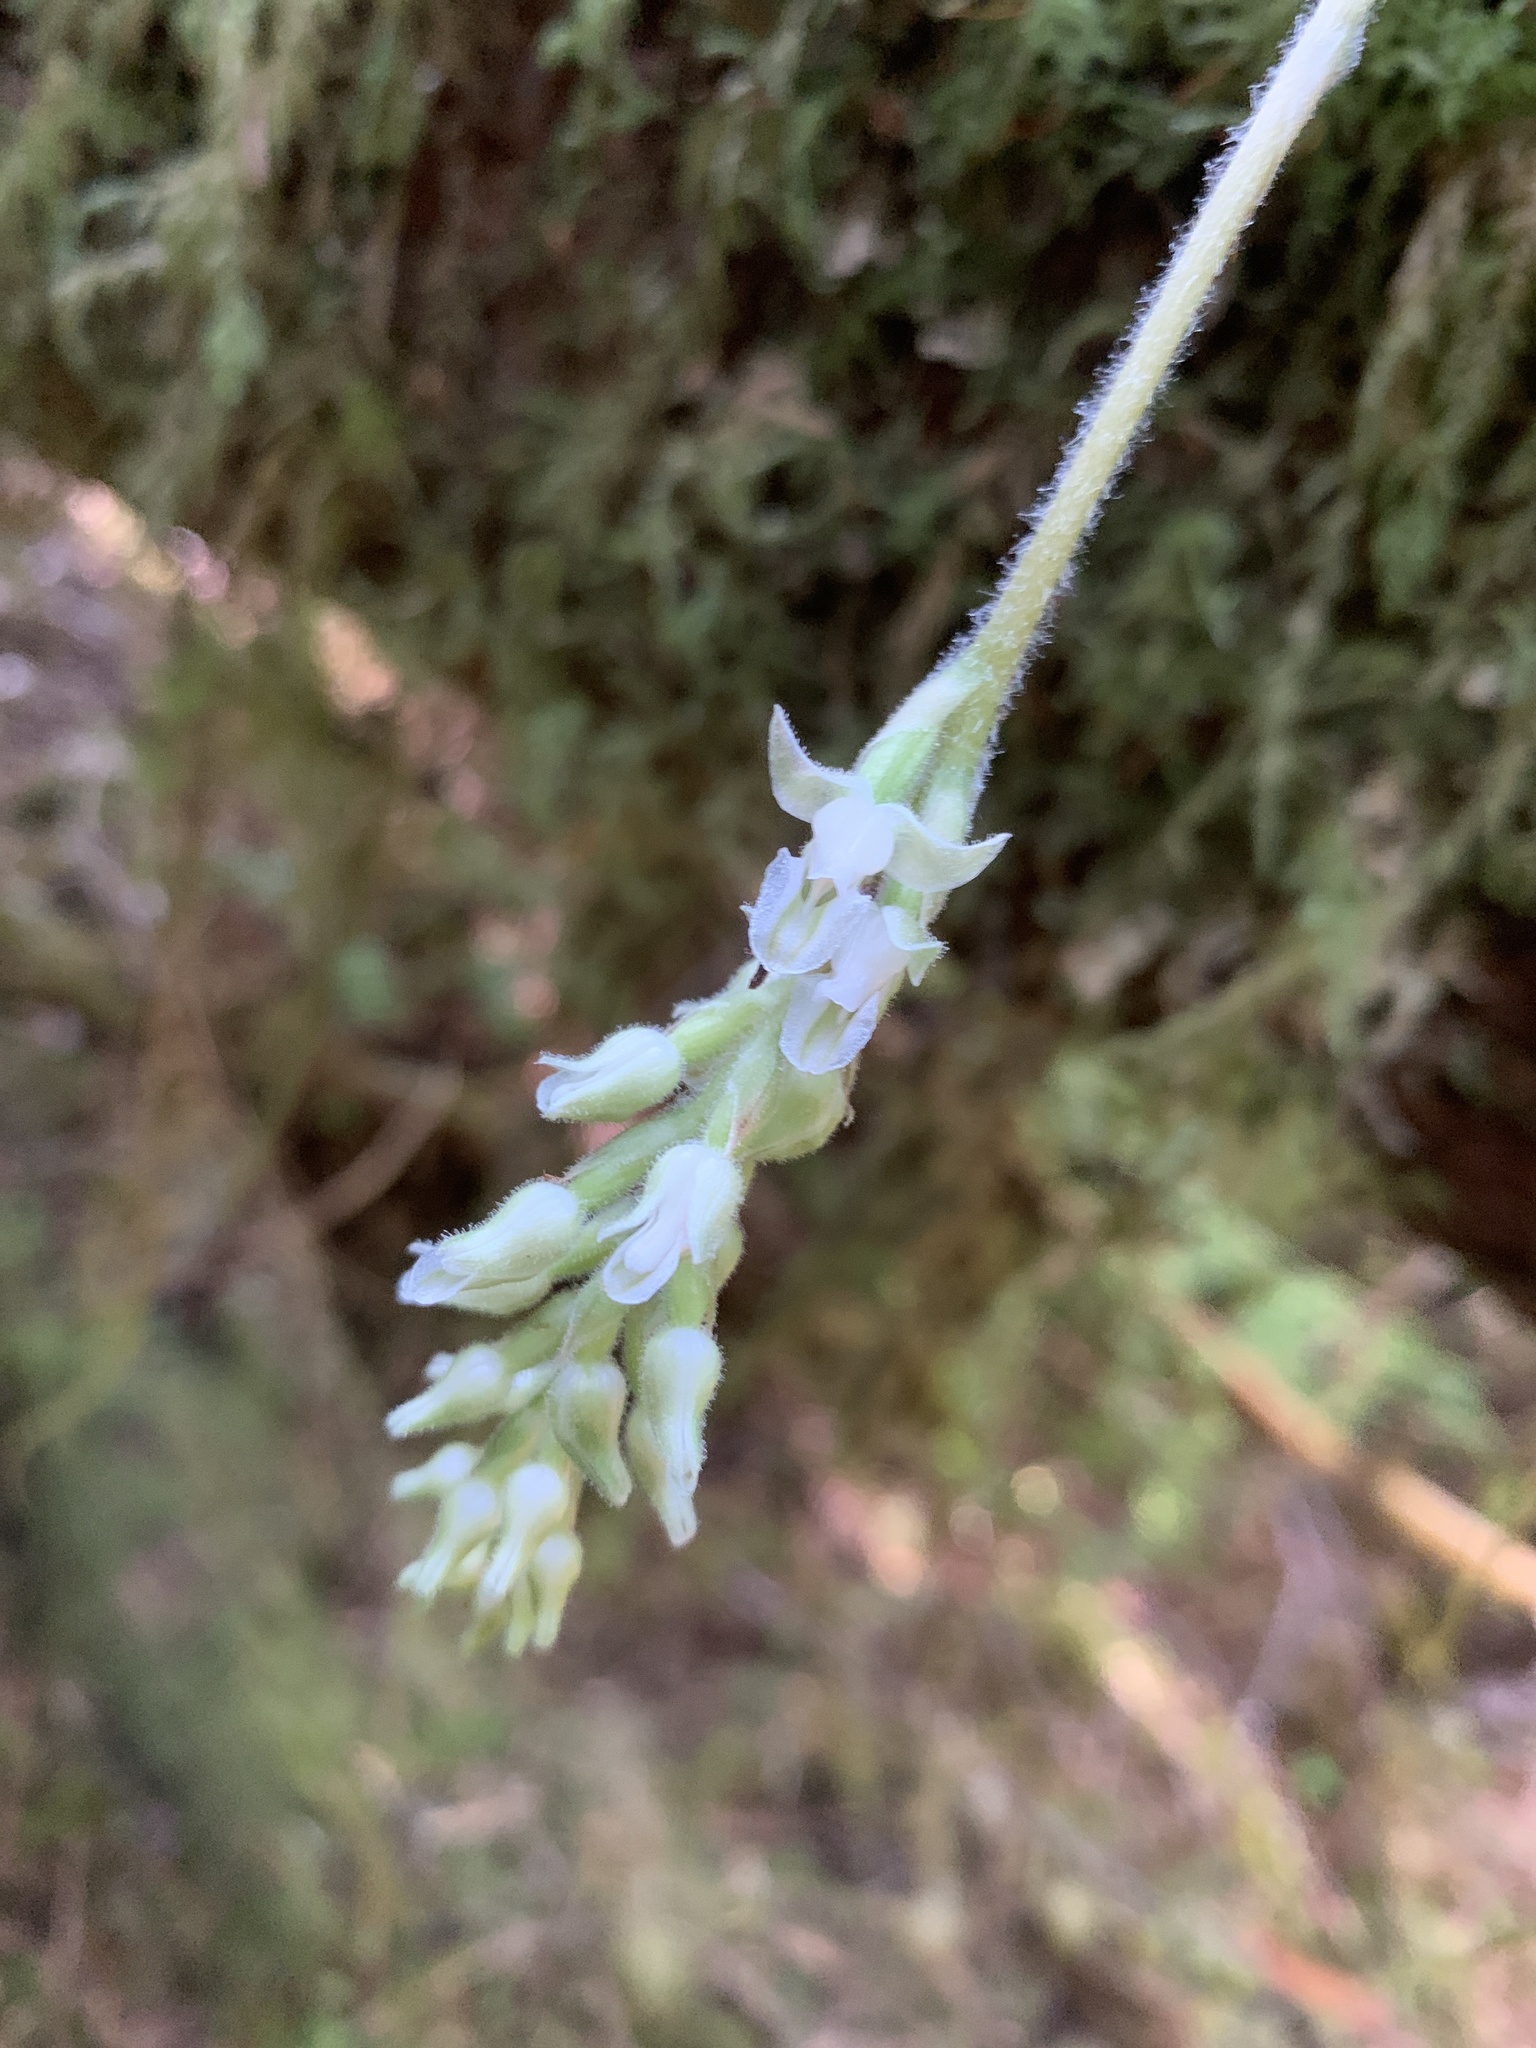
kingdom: Plantae
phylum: Tracheophyta
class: Liliopsida
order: Asparagales
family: Orchidaceae
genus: Goodyera
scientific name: Goodyera oblongifolia
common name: Giant rattlesnake-plantain
